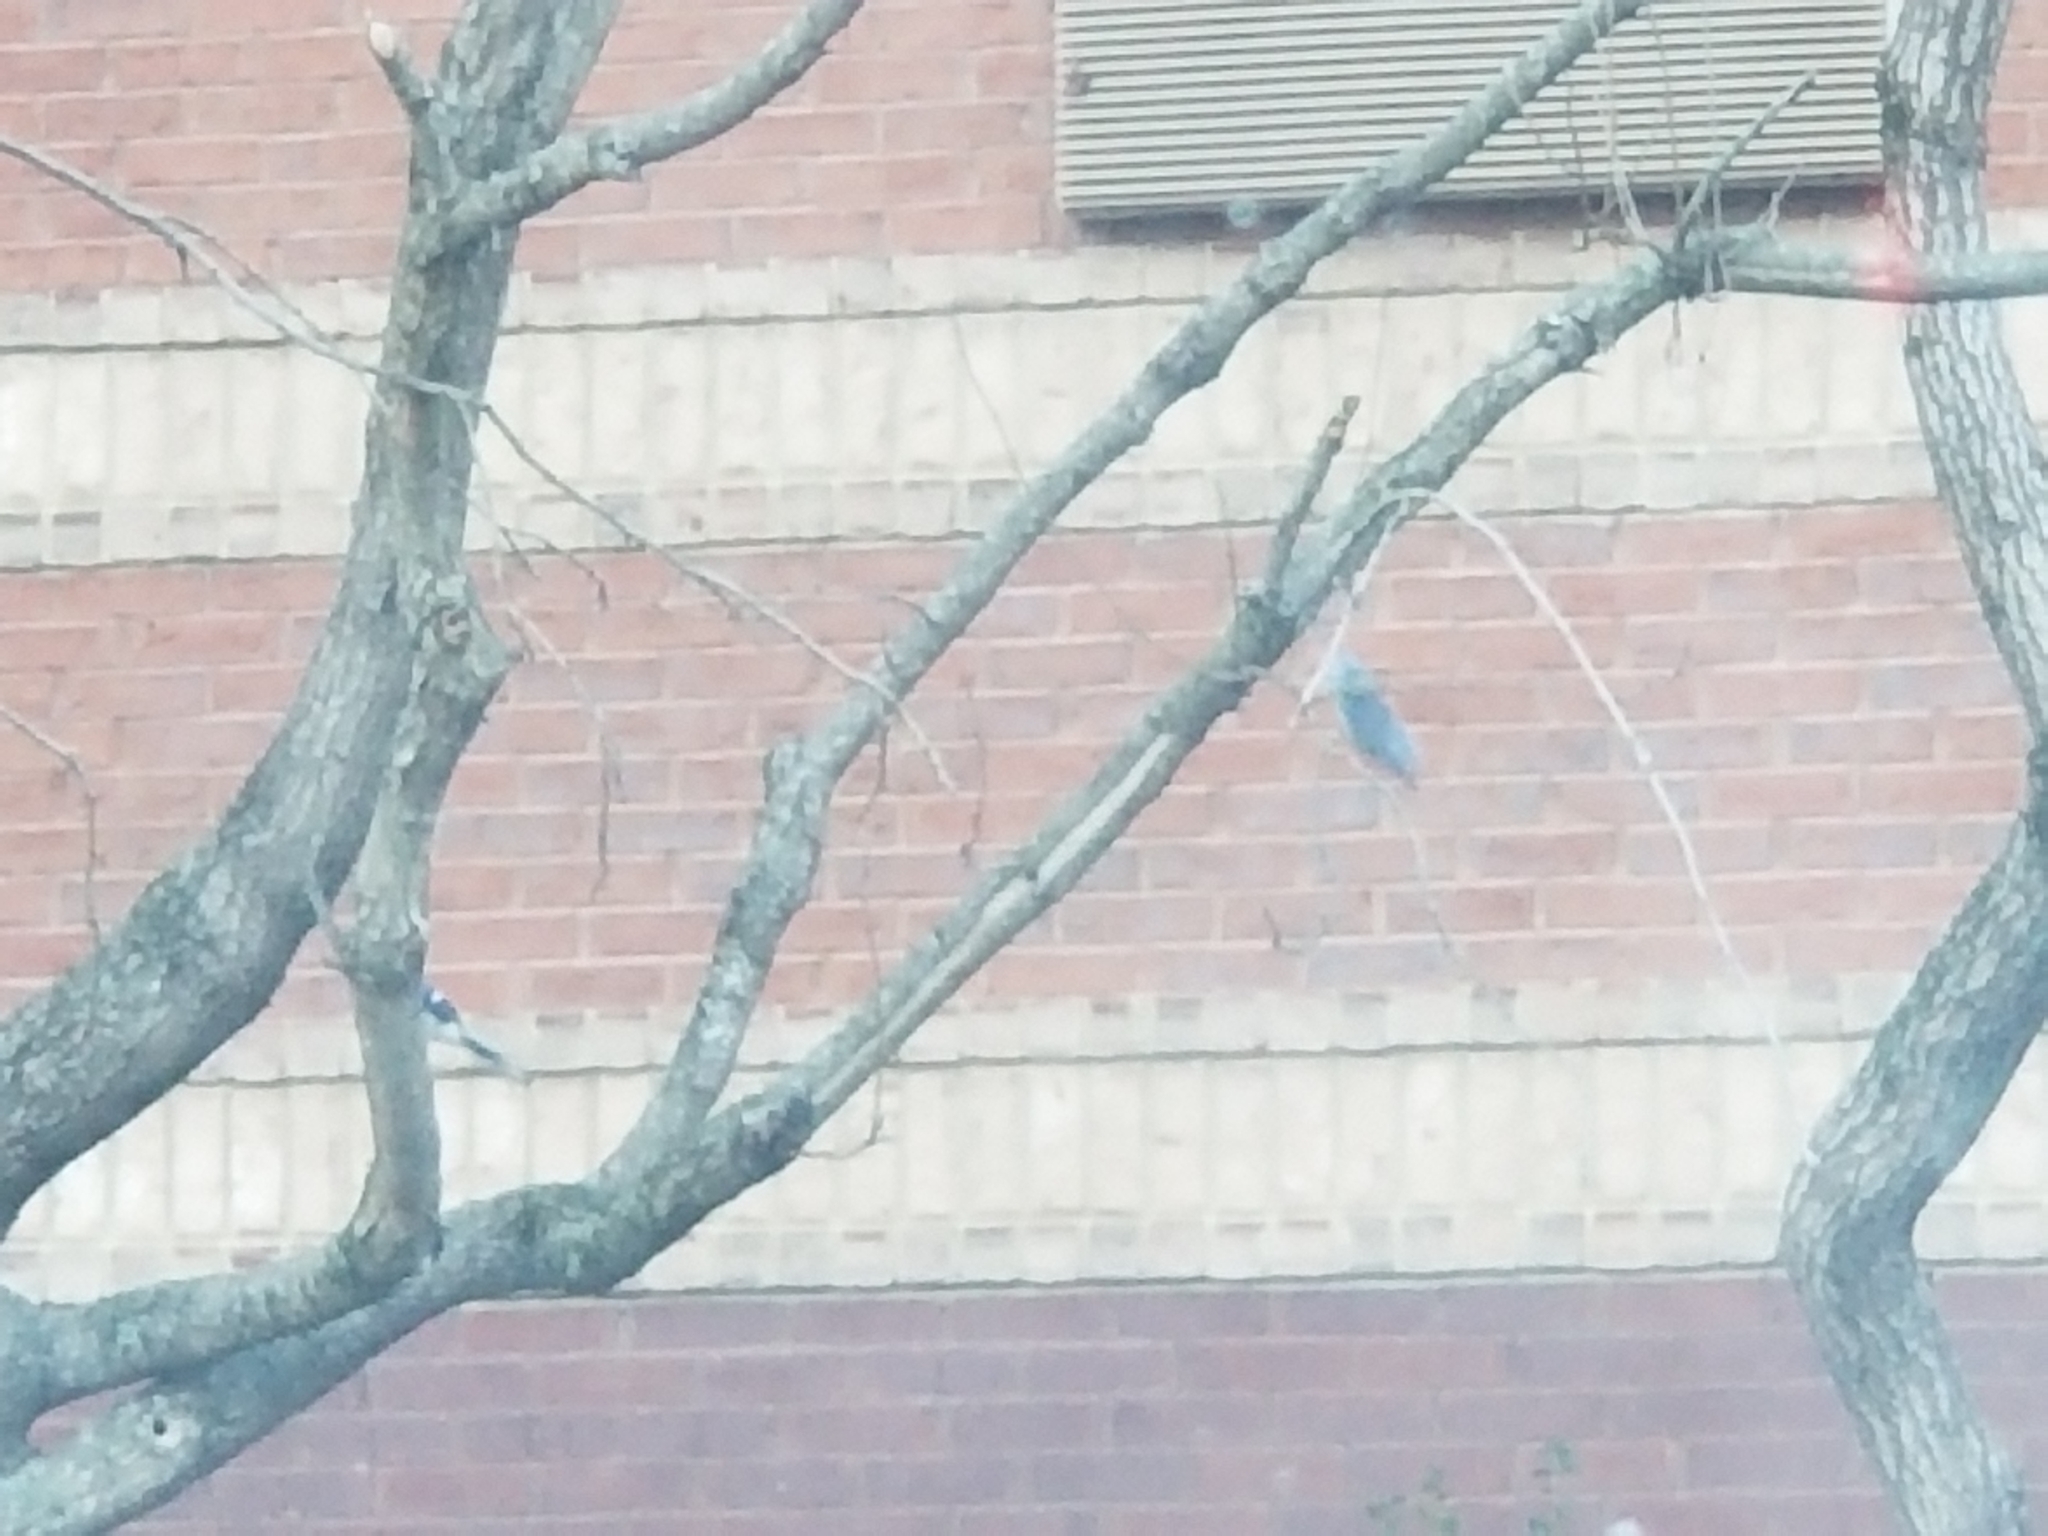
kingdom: Animalia
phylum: Chordata
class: Aves
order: Passeriformes
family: Corvidae
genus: Cyanocitta
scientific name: Cyanocitta cristata
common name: Blue jay
